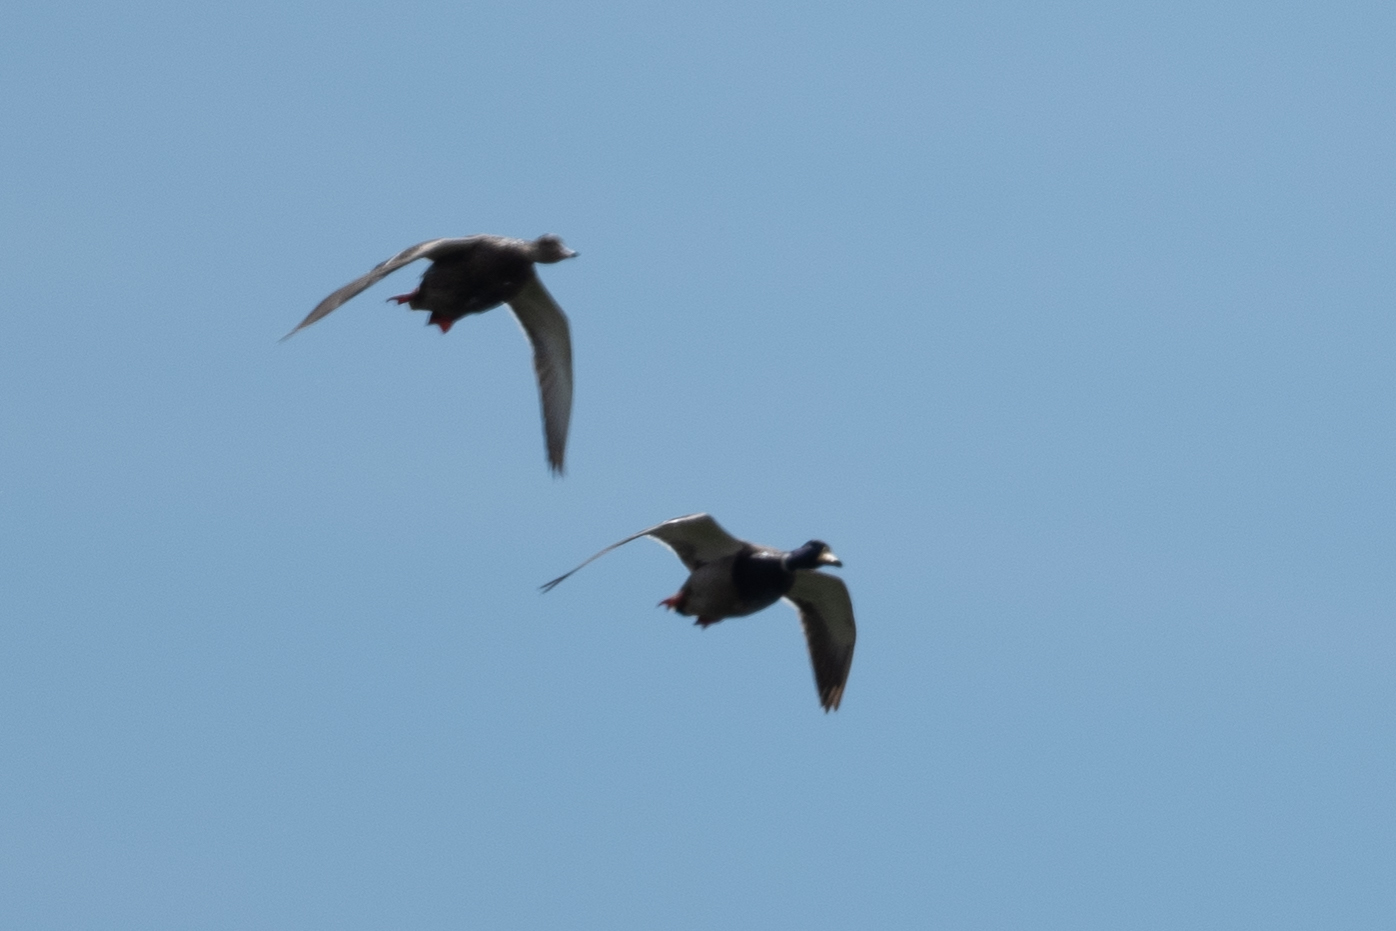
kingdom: Animalia
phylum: Chordata
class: Aves
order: Anseriformes
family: Anatidae
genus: Anas
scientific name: Anas platyrhynchos
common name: Mallard
